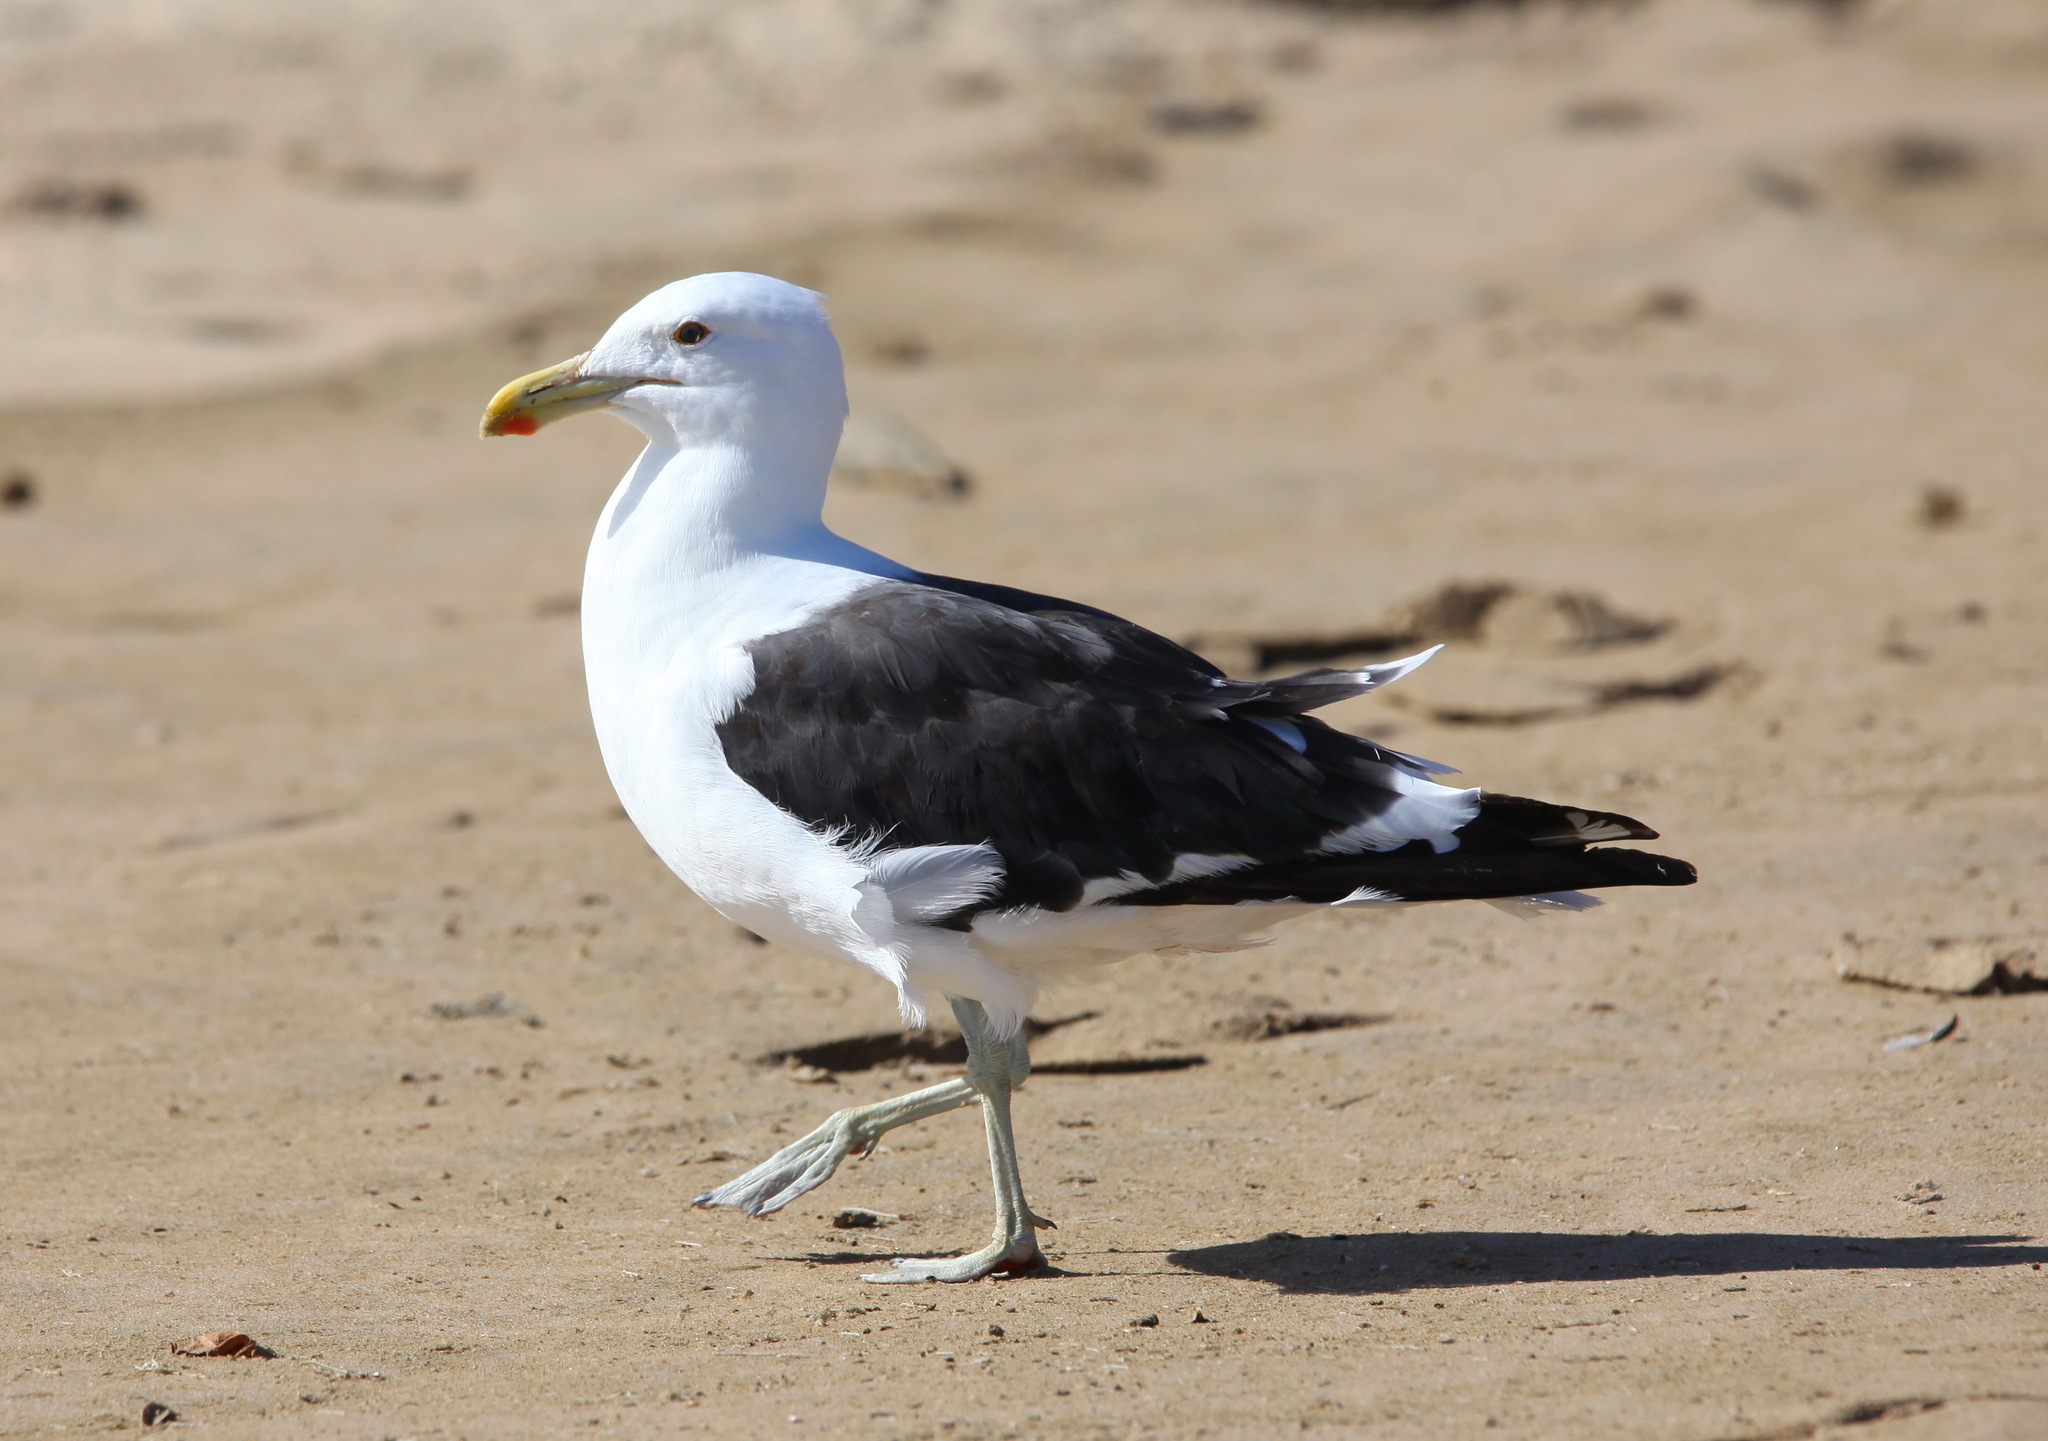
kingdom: Animalia
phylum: Chordata
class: Aves
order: Charadriiformes
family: Laridae
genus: Larus
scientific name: Larus dominicanus
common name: Kelp gull
